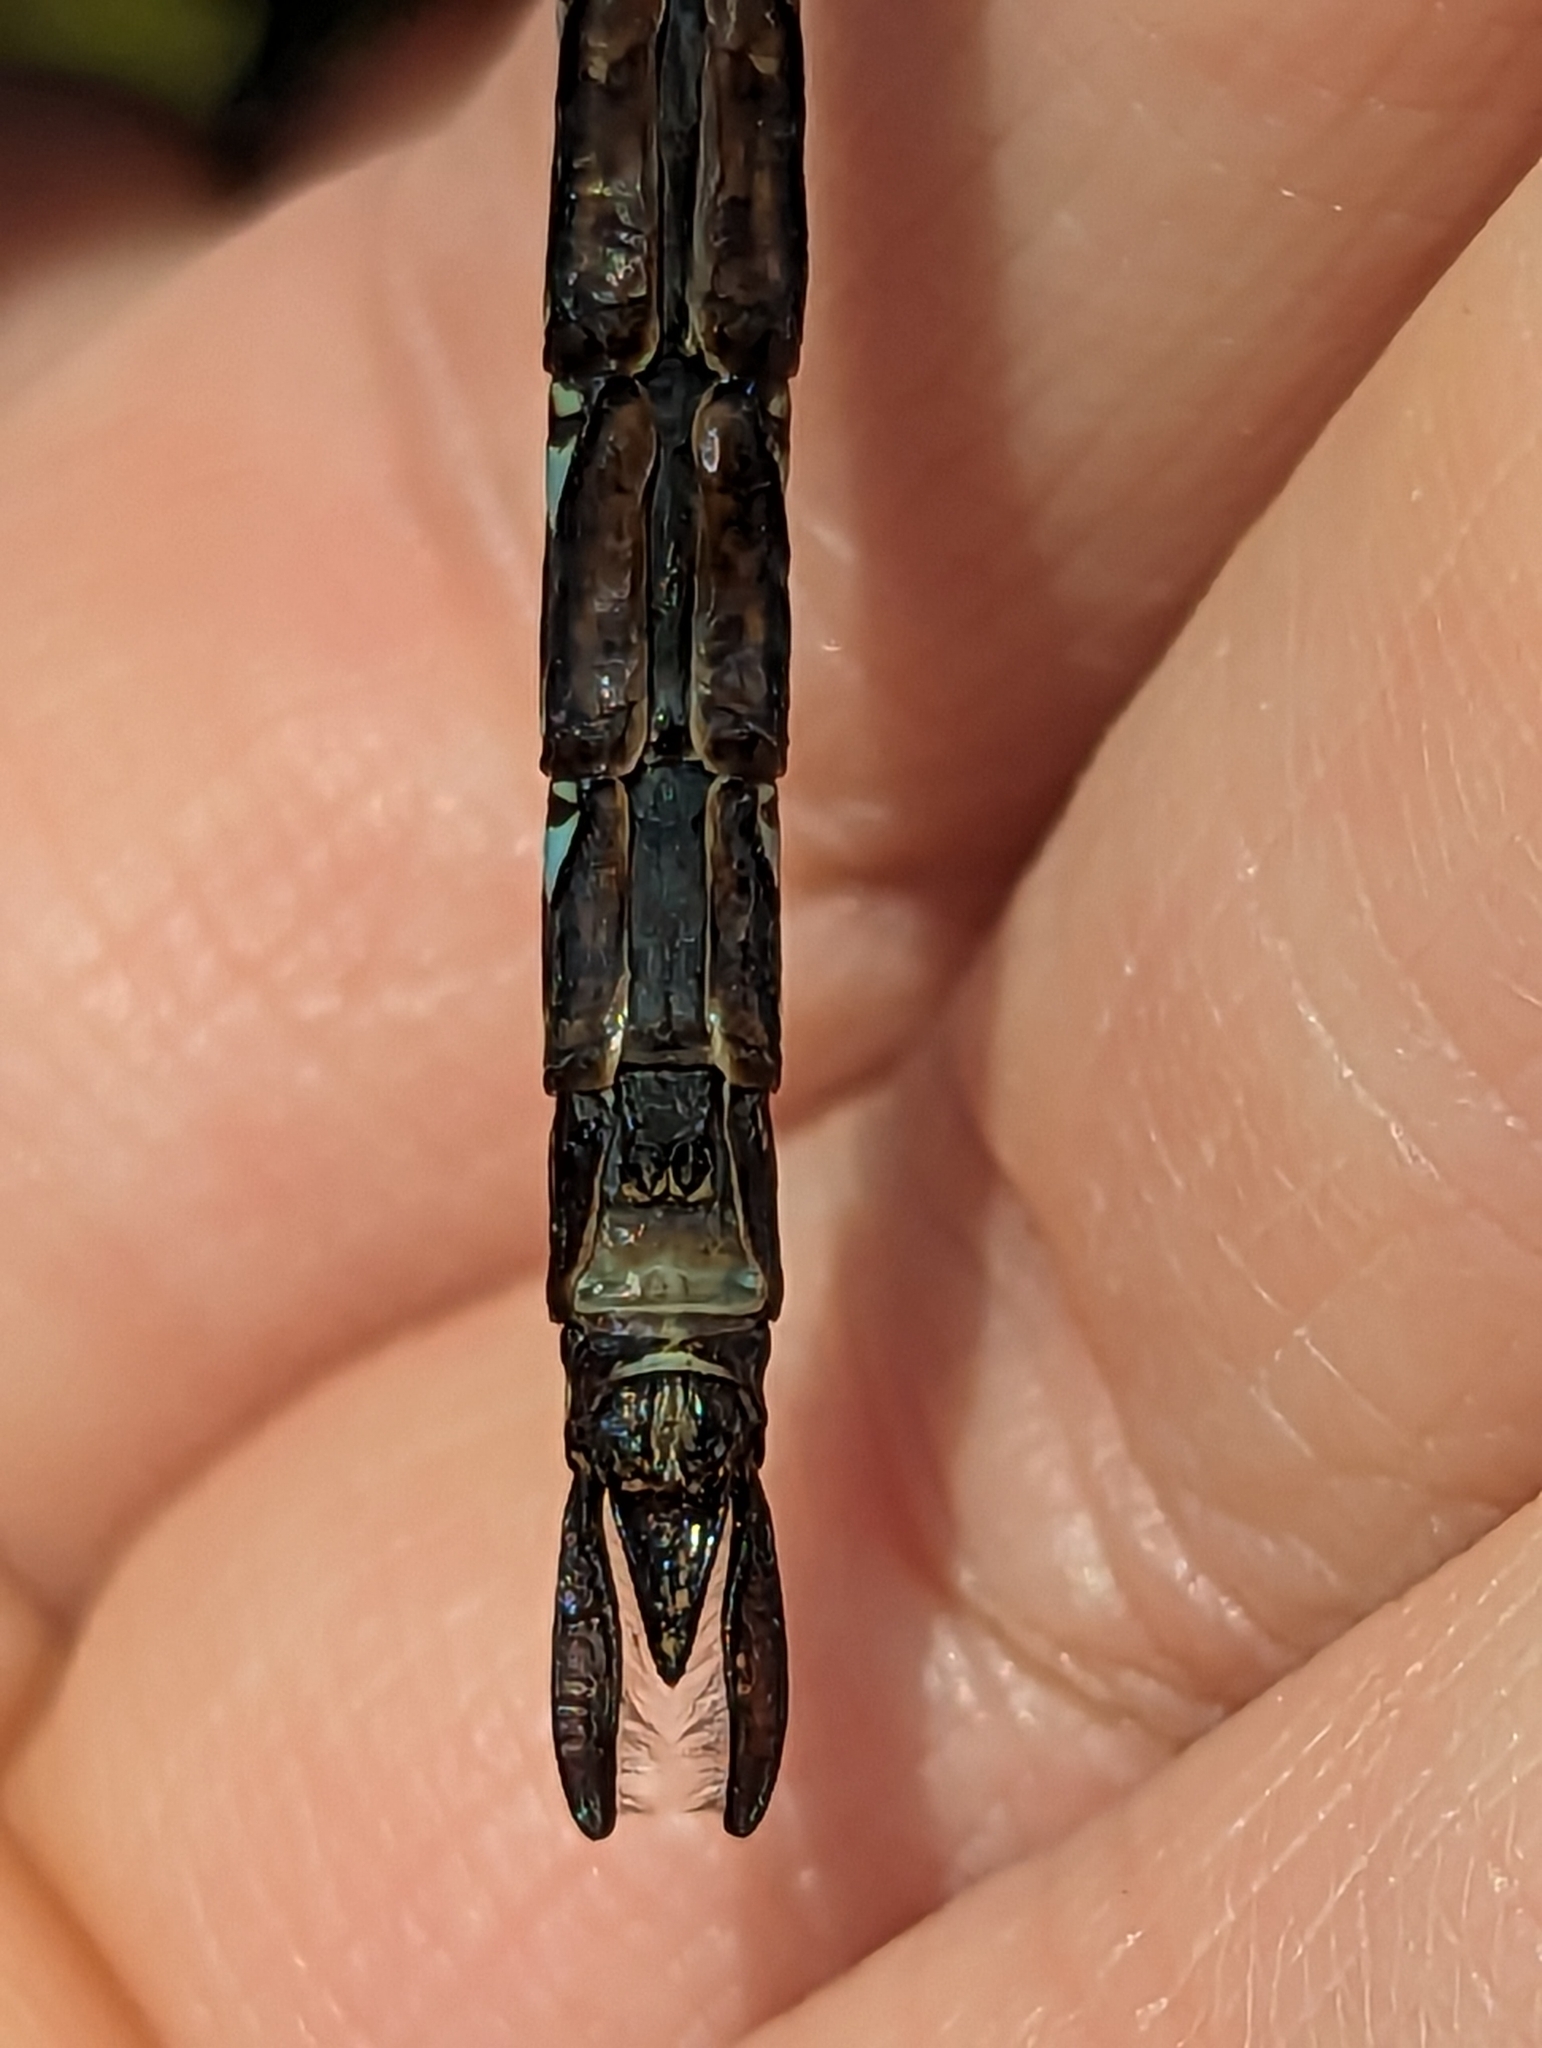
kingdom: Animalia
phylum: Arthropoda
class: Insecta
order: Odonata
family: Aeshnidae
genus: Aeshna
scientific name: Aeshna eremita
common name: Lake darner
